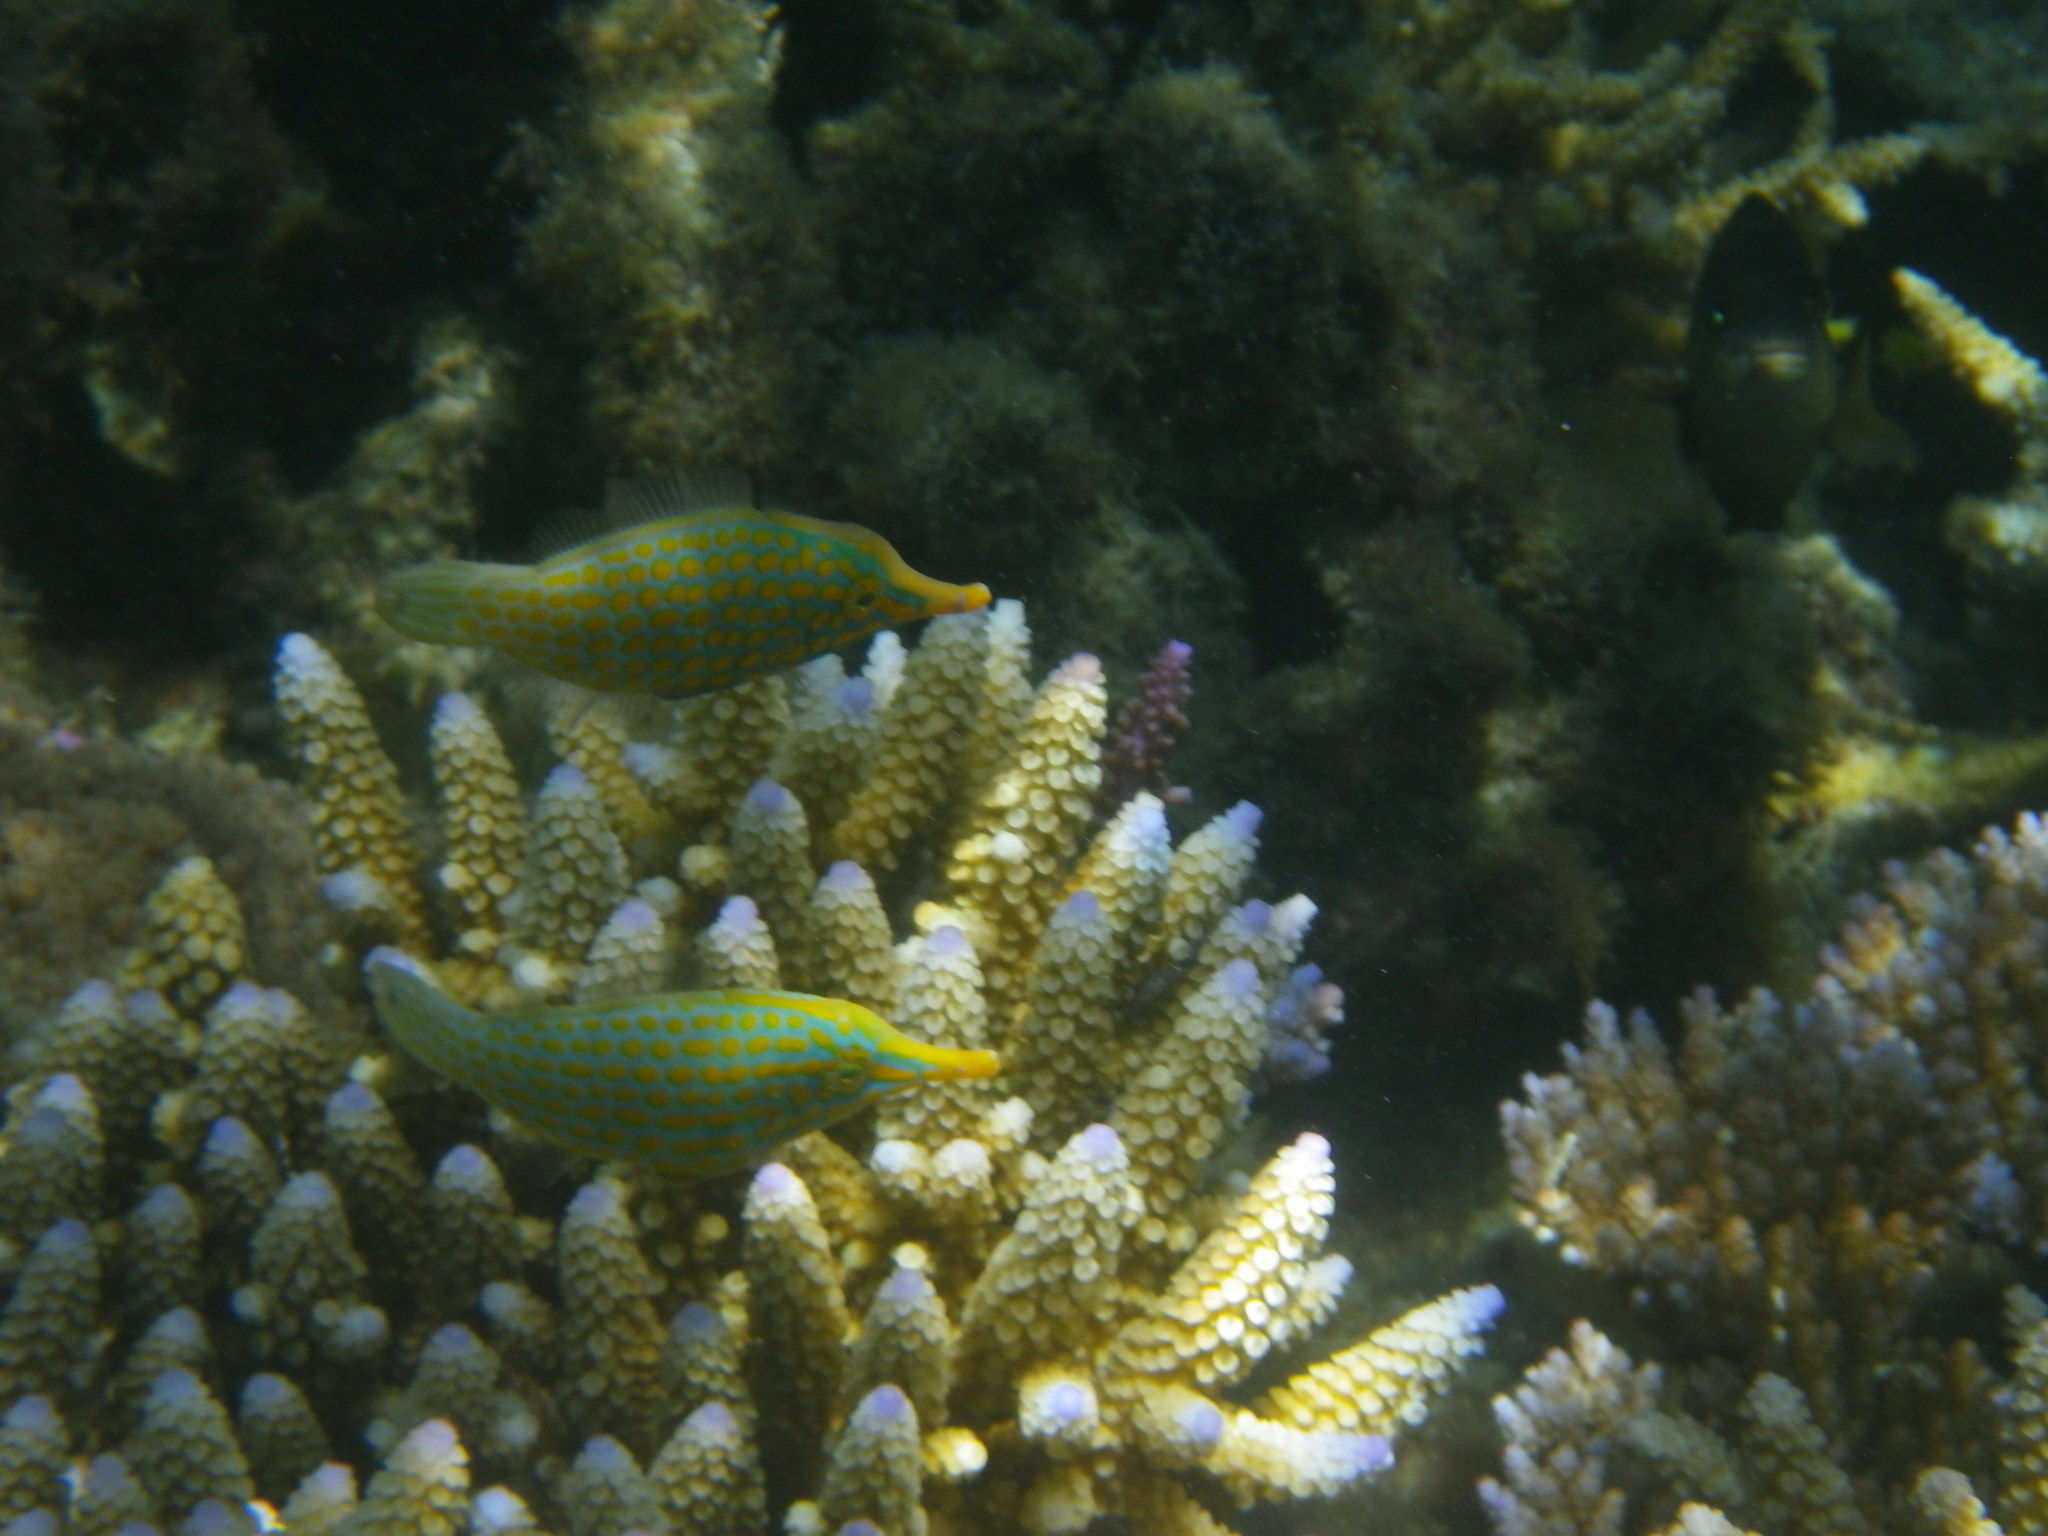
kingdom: Animalia
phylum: Chordata
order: Tetraodontiformes
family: Monacanthidae
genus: Oxymonacanthus
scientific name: Oxymonacanthus longirostris
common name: Beaked leatherjacket
